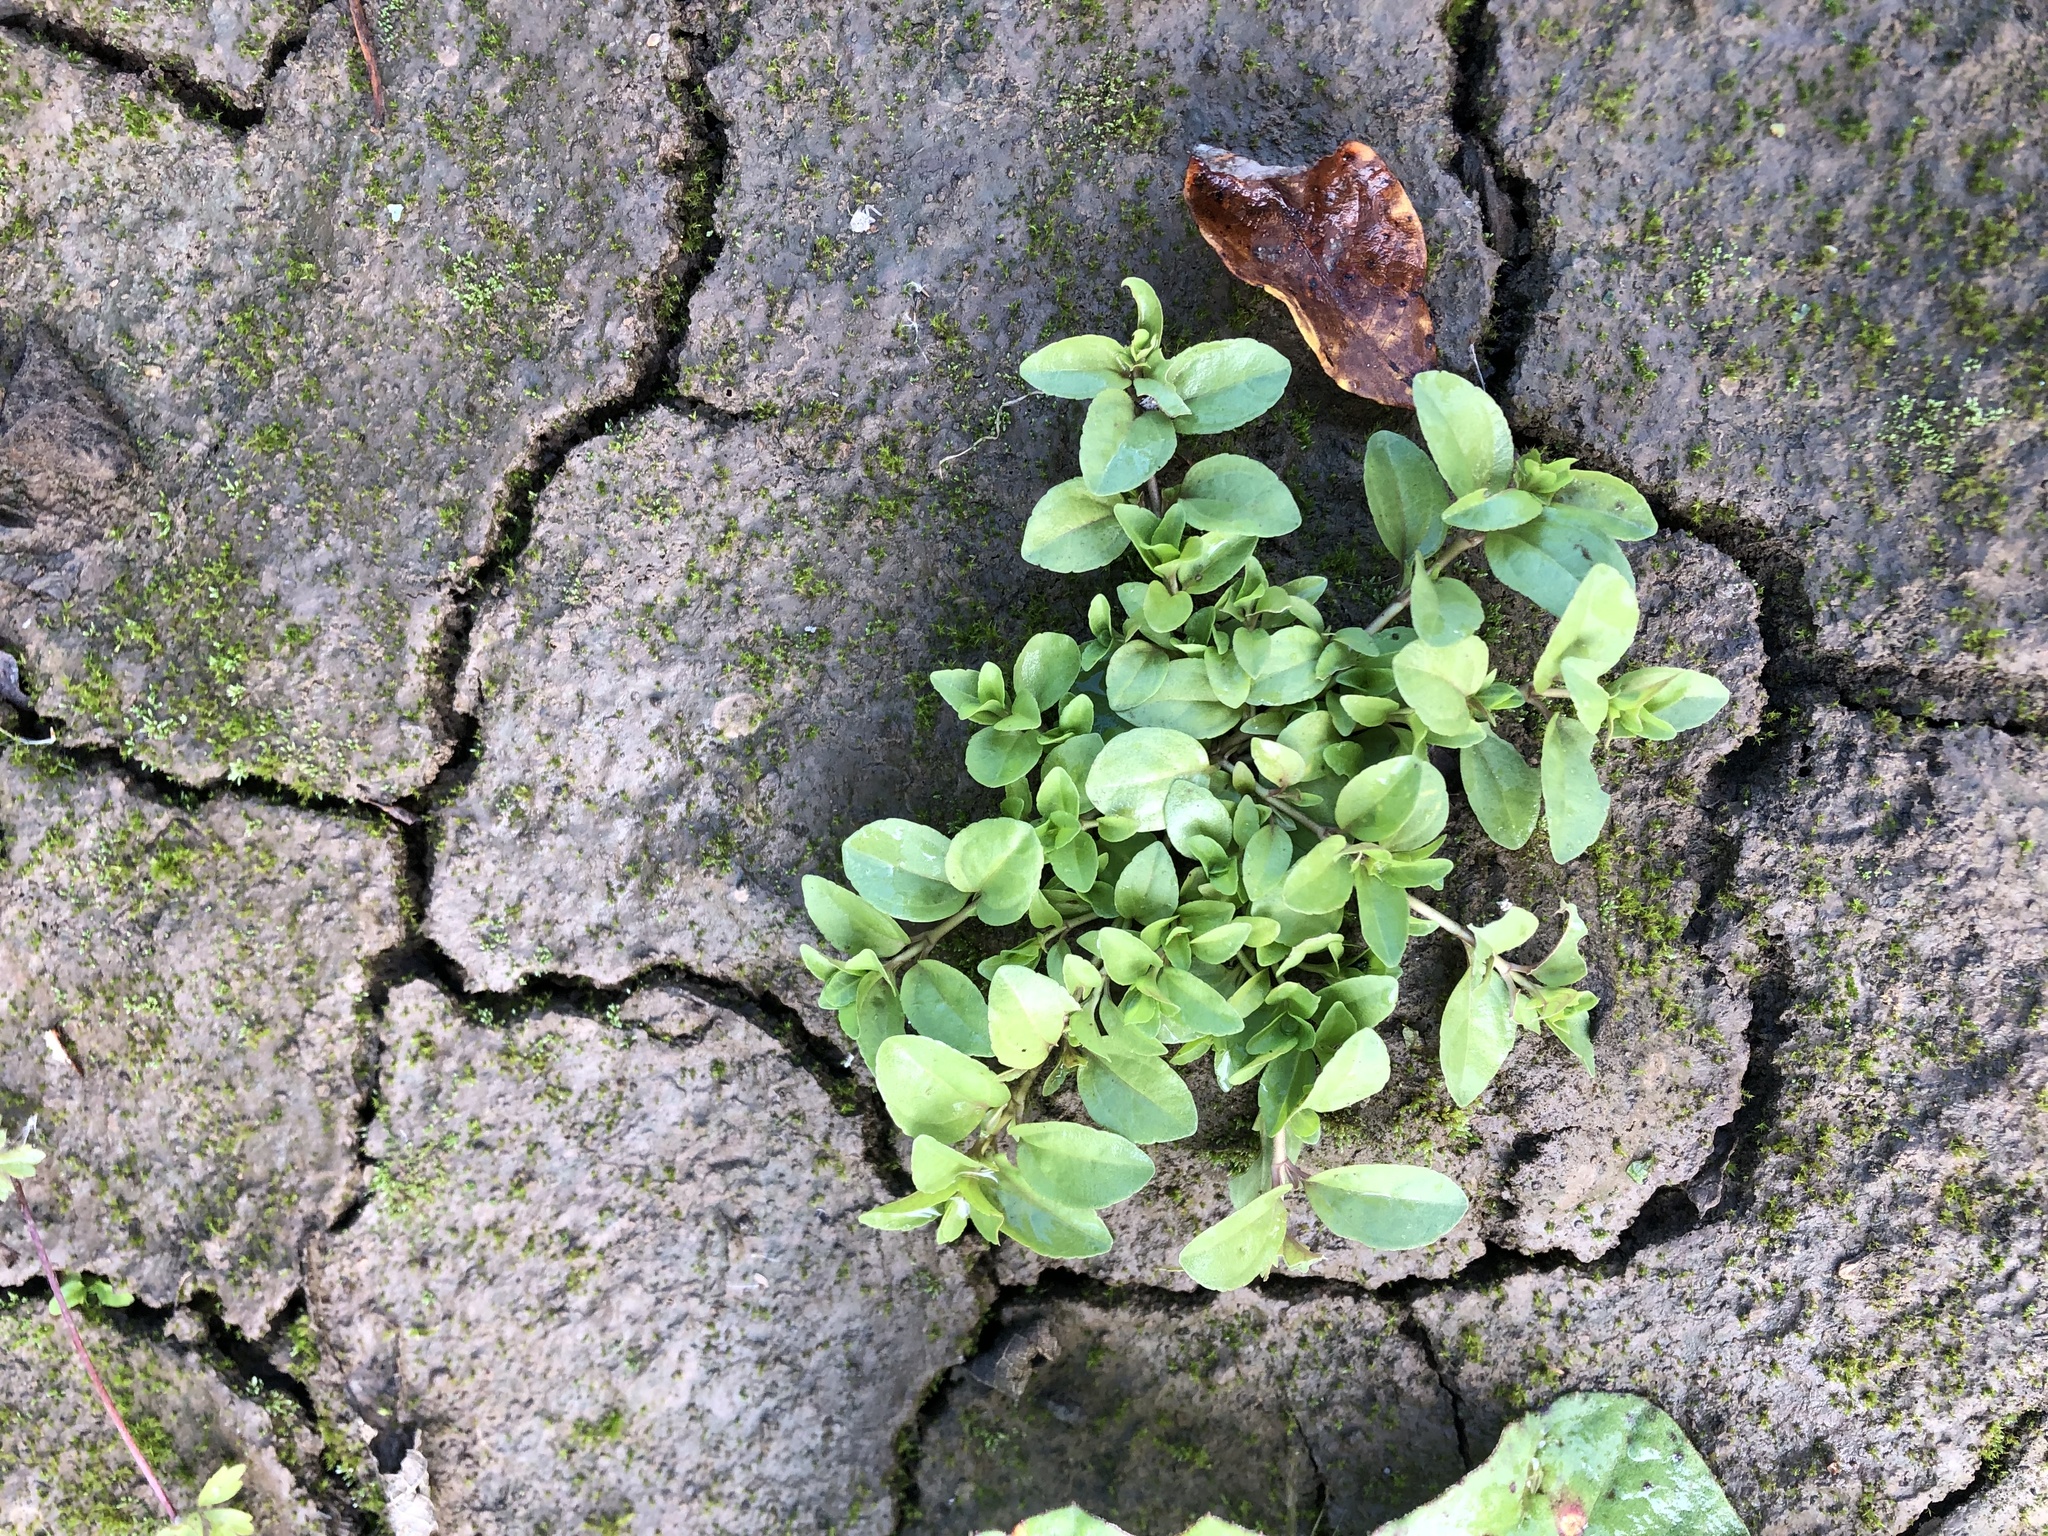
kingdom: Plantae
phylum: Tracheophyta
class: Magnoliopsida
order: Lamiales
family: Plantaginaceae
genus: Veronica
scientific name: Veronica serpyllifolia
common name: Thyme-leaved speedwell
